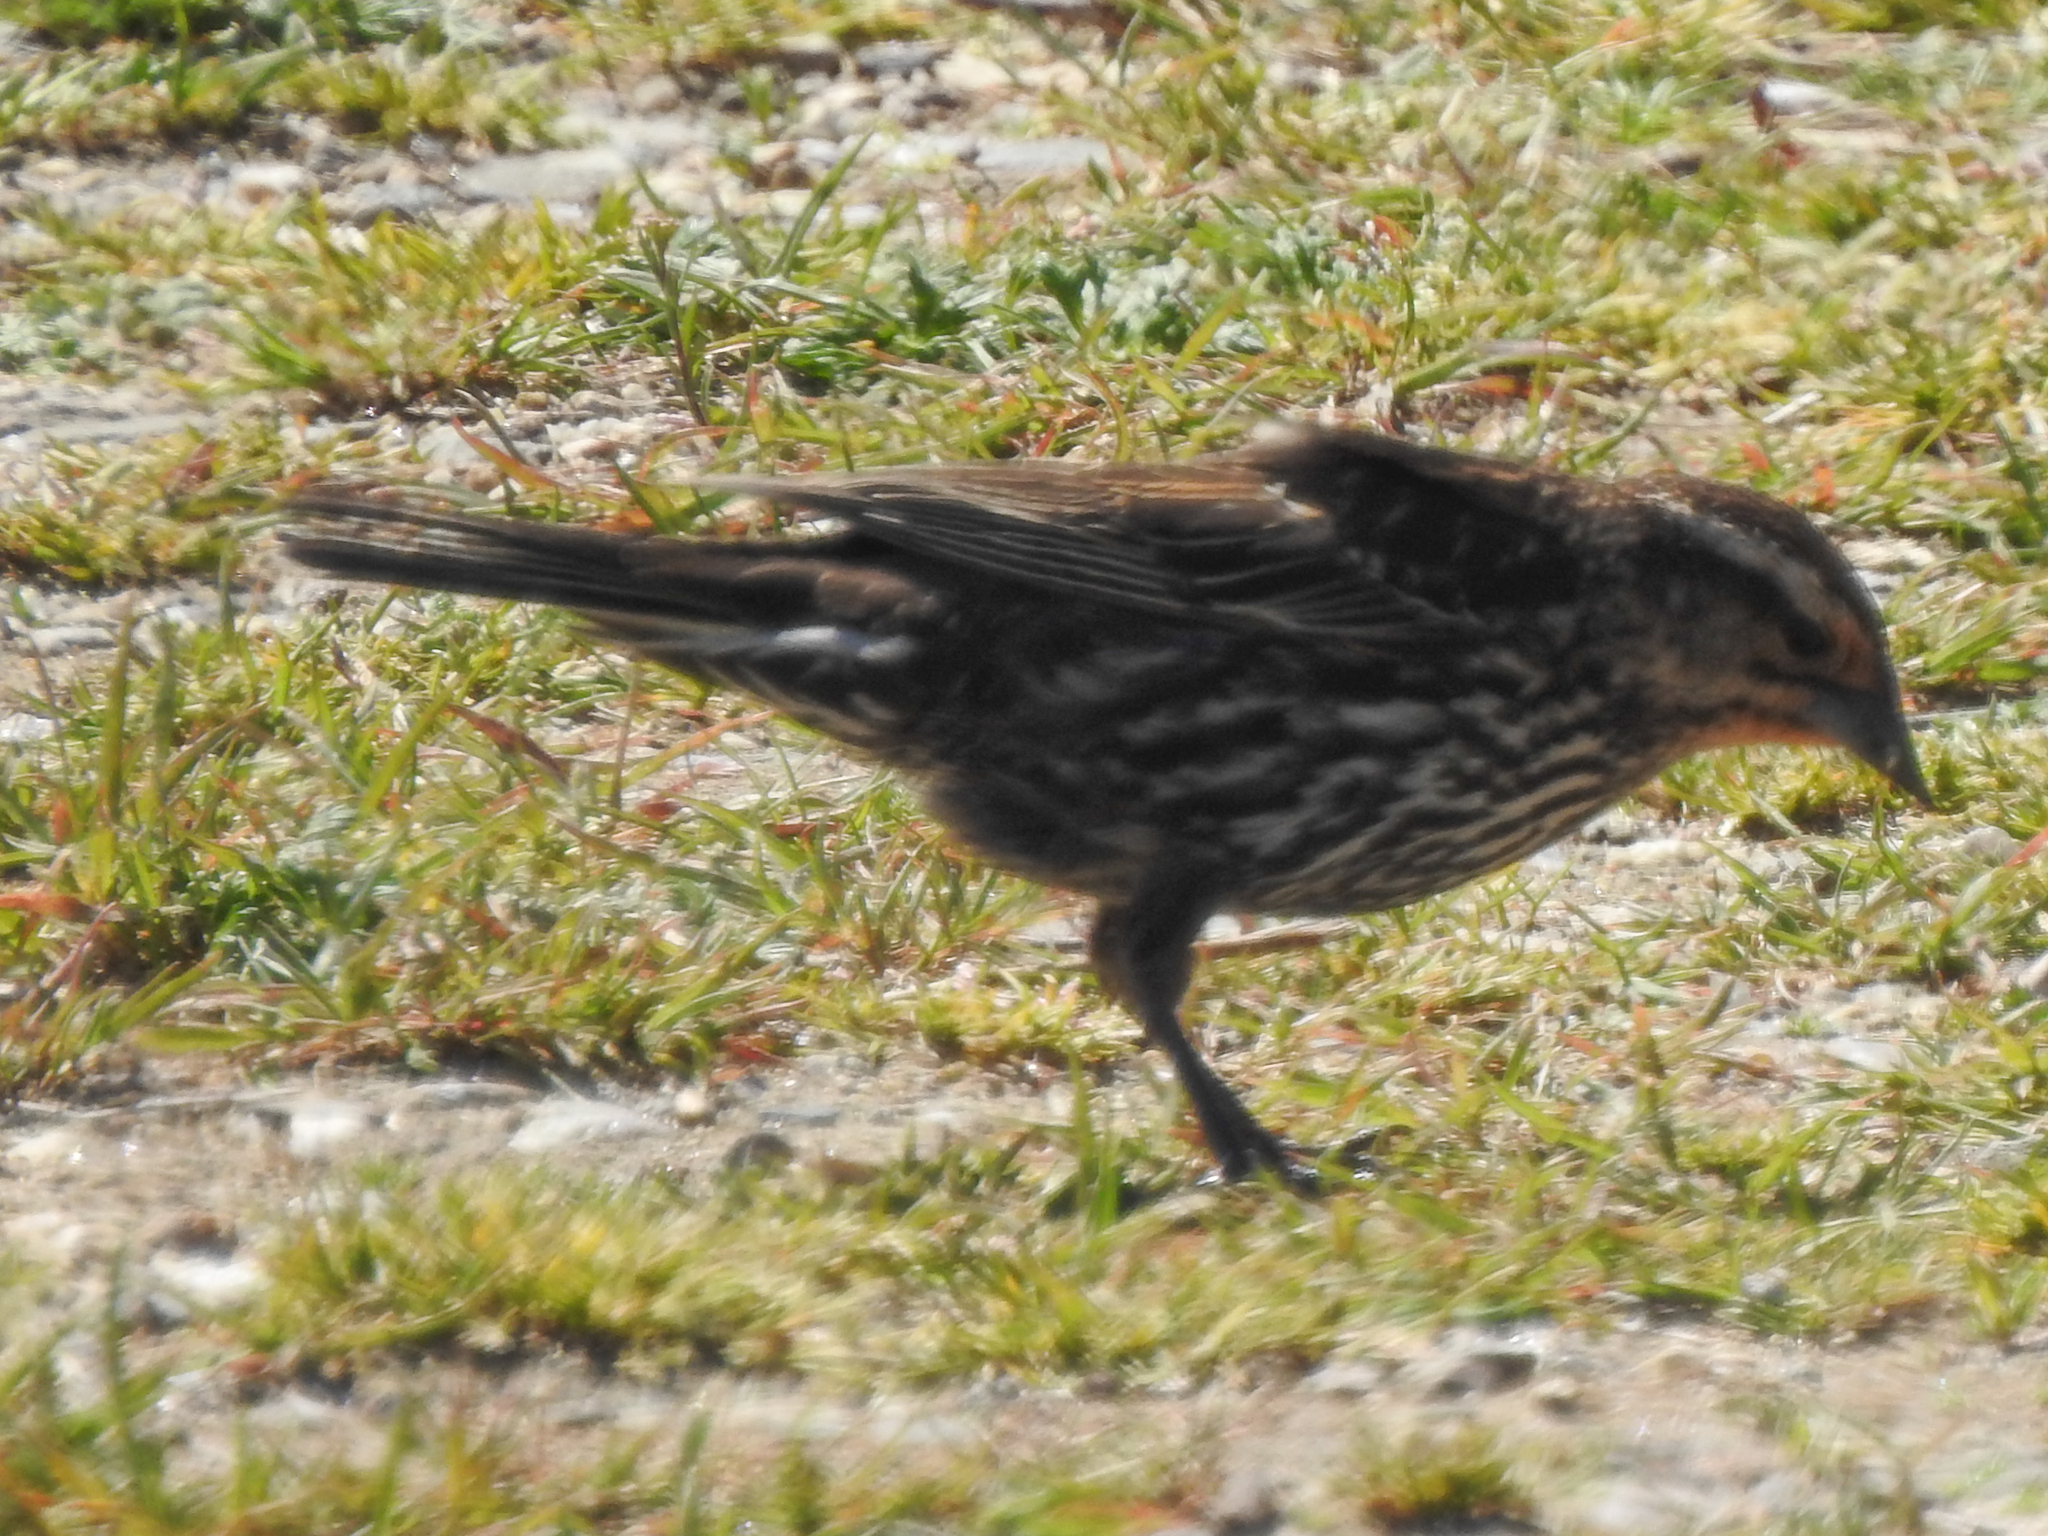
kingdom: Animalia
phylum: Chordata
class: Aves
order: Passeriformes
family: Icteridae
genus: Agelaius
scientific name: Agelaius phoeniceus
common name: Red-winged blackbird
